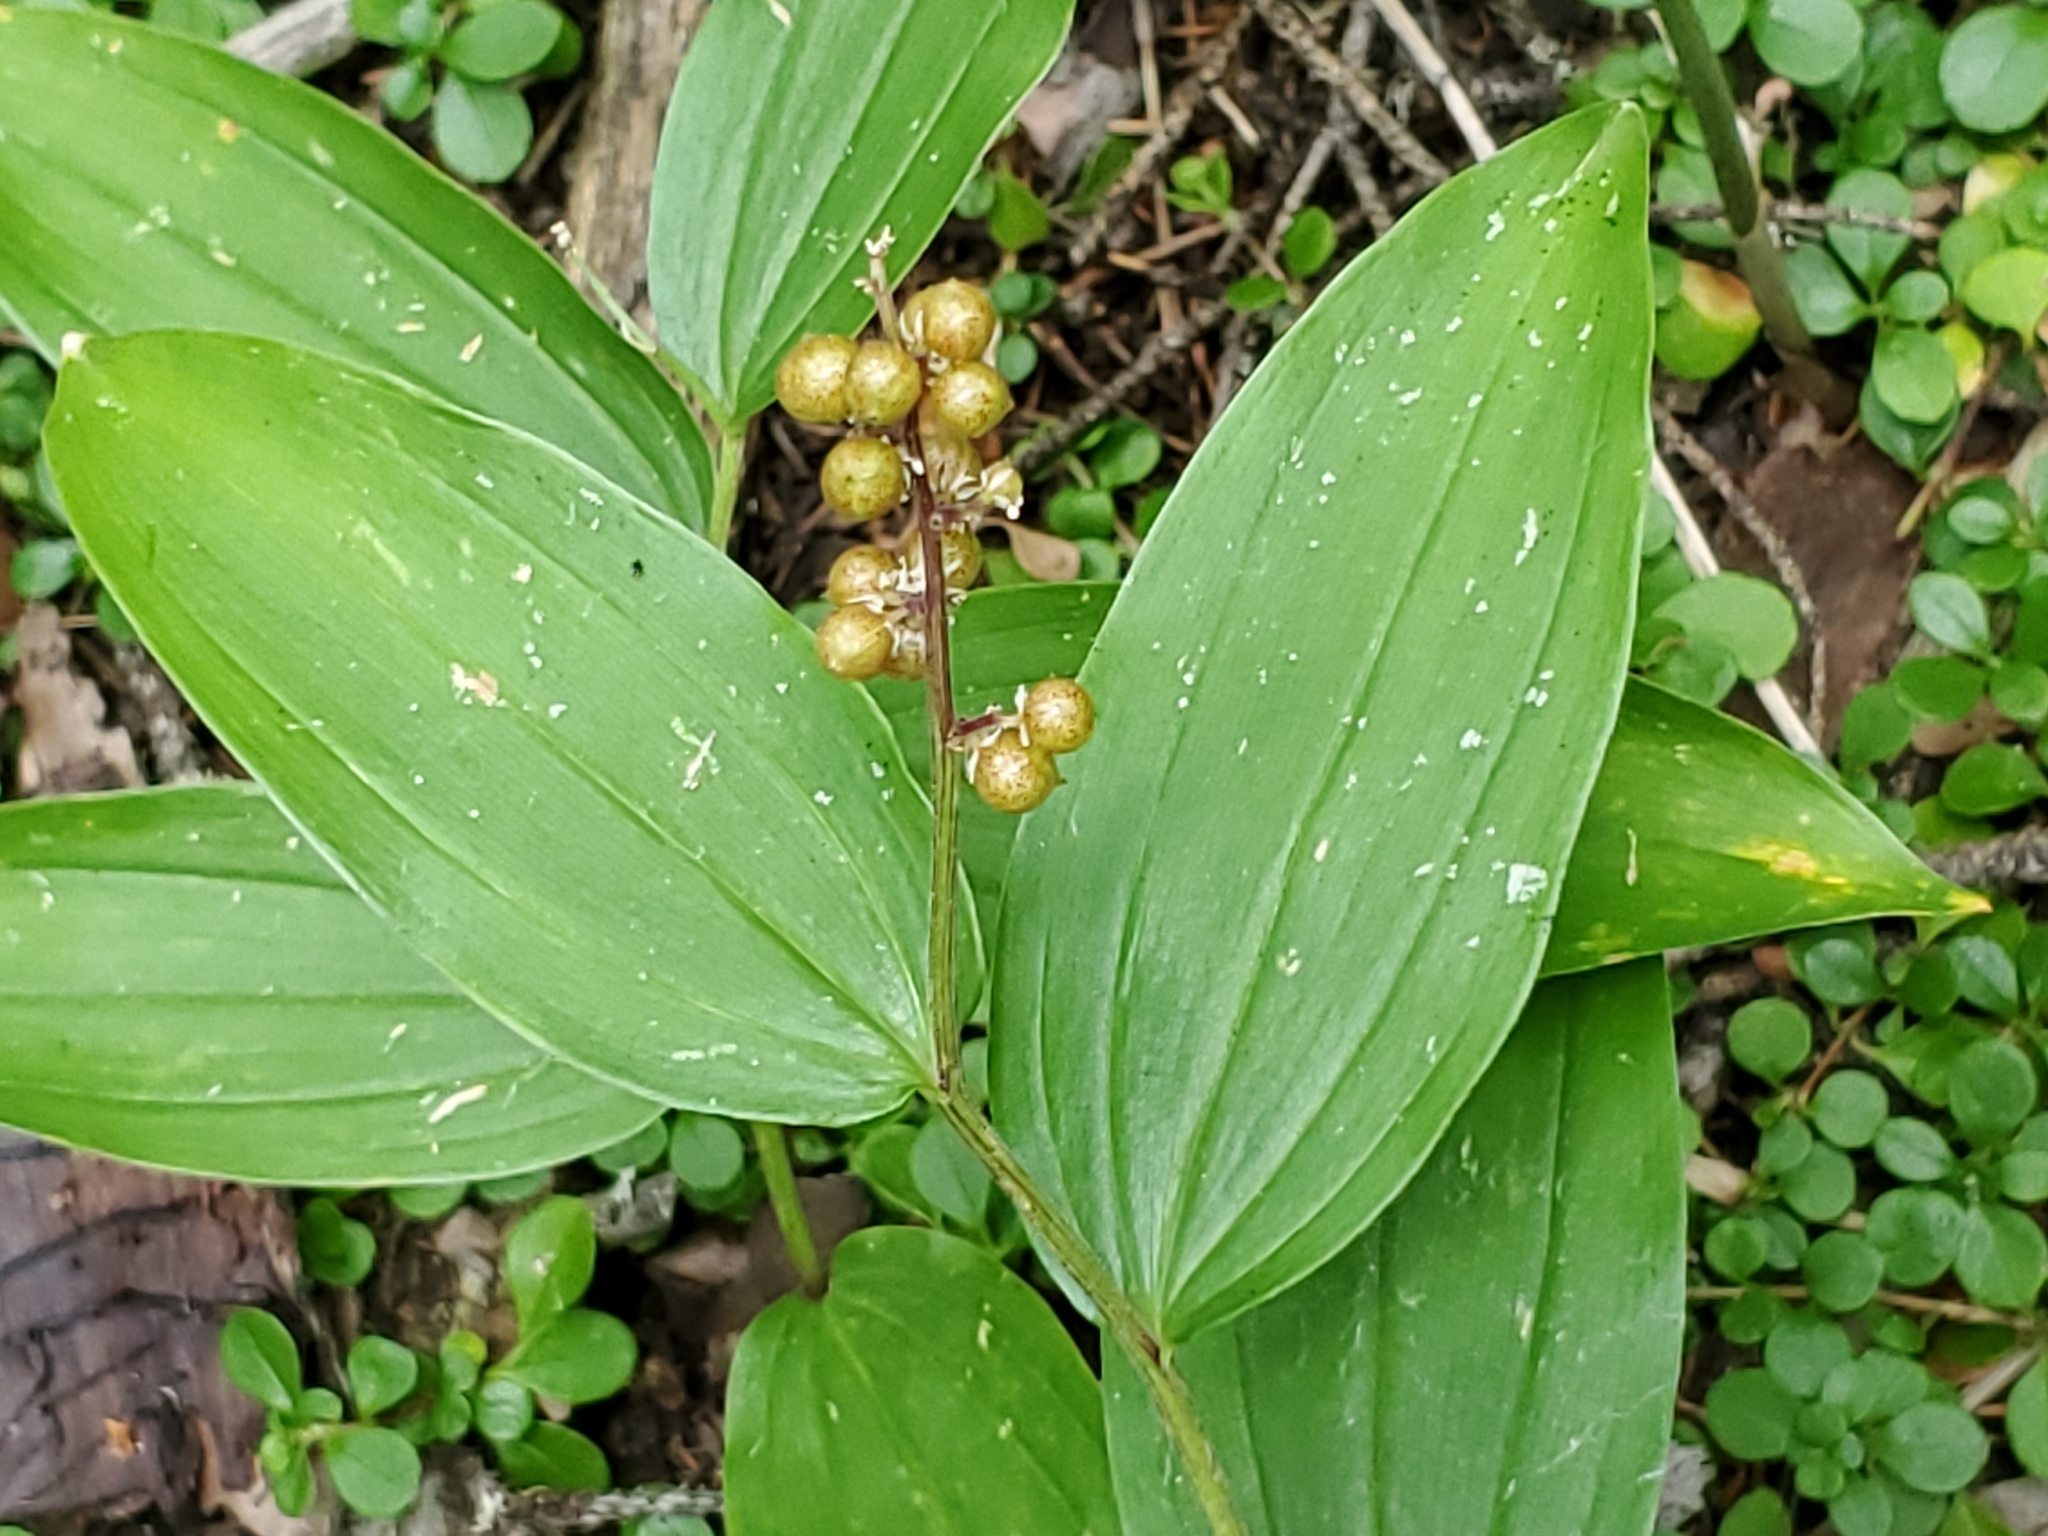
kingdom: Plantae
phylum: Tracheophyta
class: Liliopsida
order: Asparagales
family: Asparagaceae
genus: Maianthemum
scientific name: Maianthemum racemosum
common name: False spikenard
